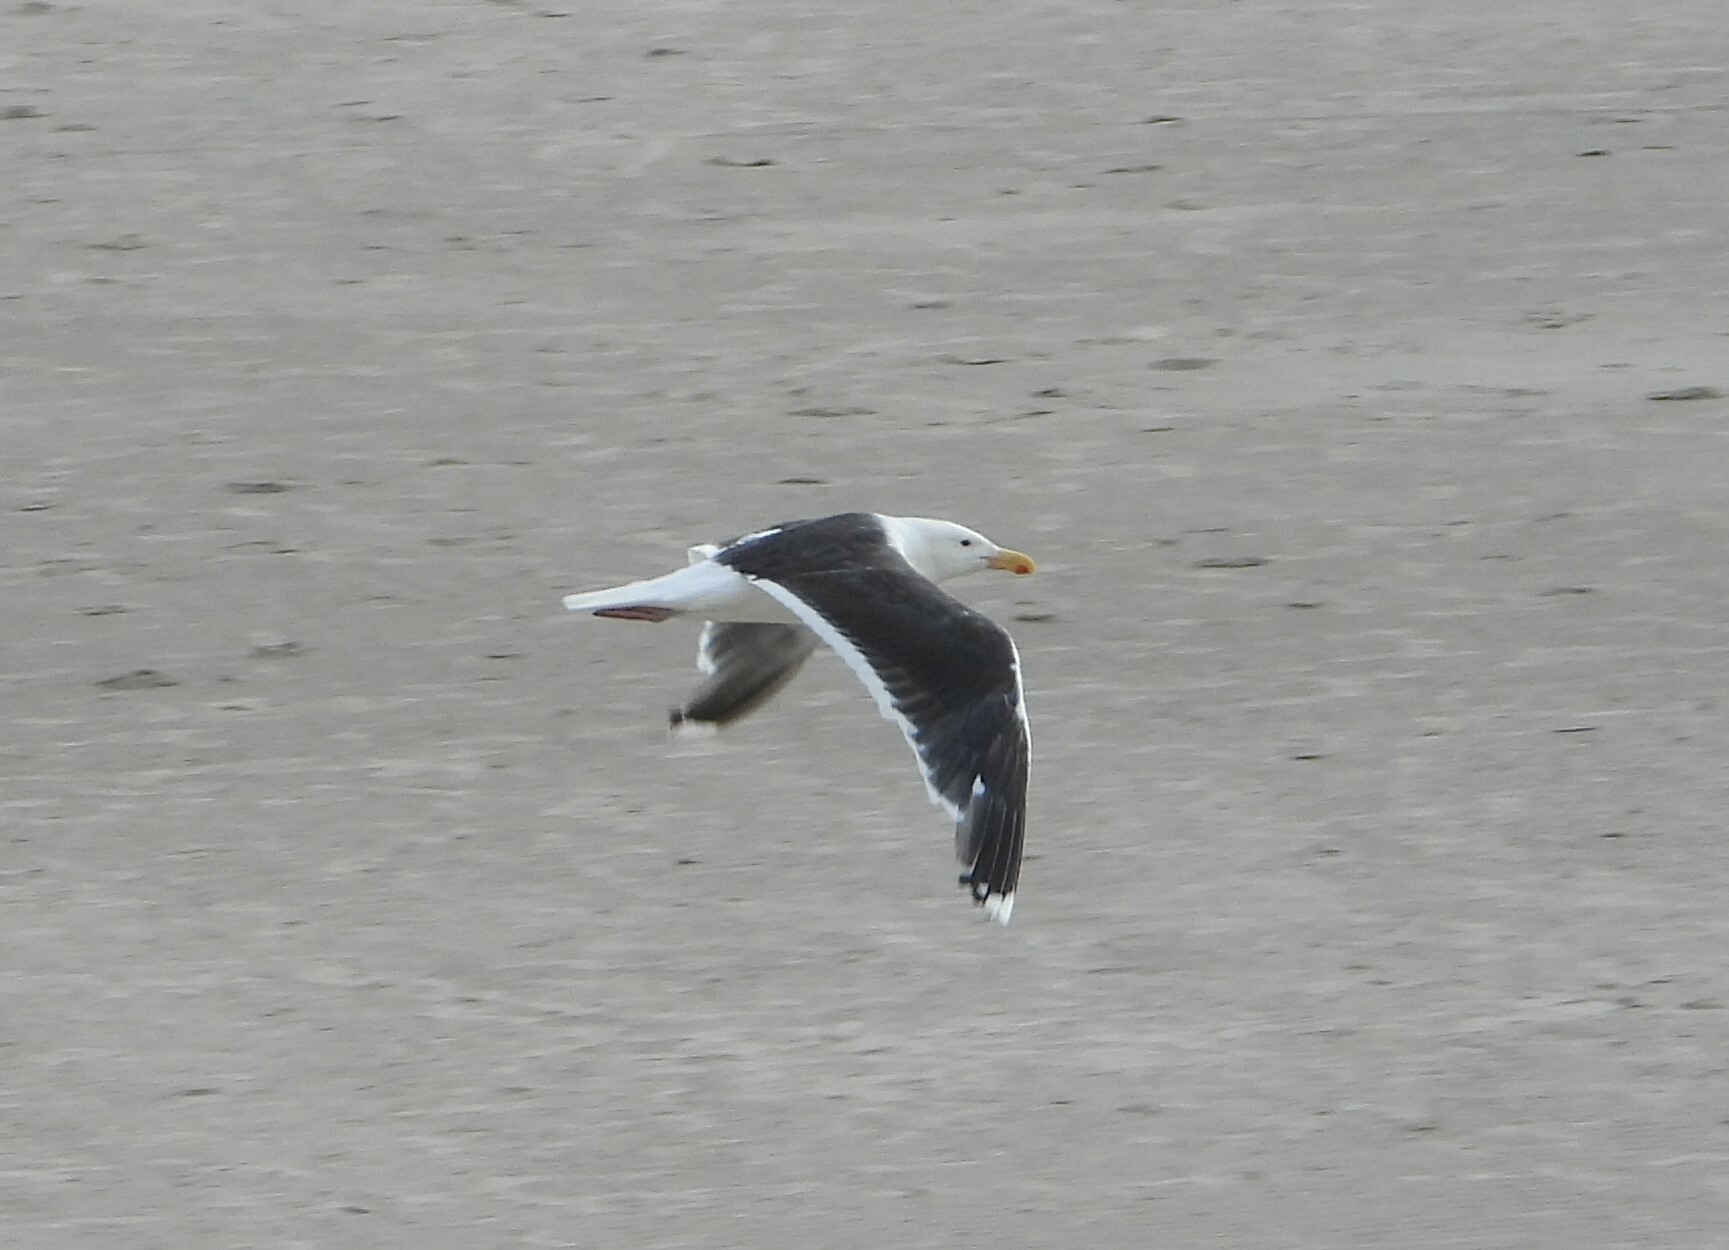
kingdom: Animalia
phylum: Chordata
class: Aves
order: Charadriiformes
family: Laridae
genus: Larus
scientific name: Larus marinus
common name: Great black-backed gull
